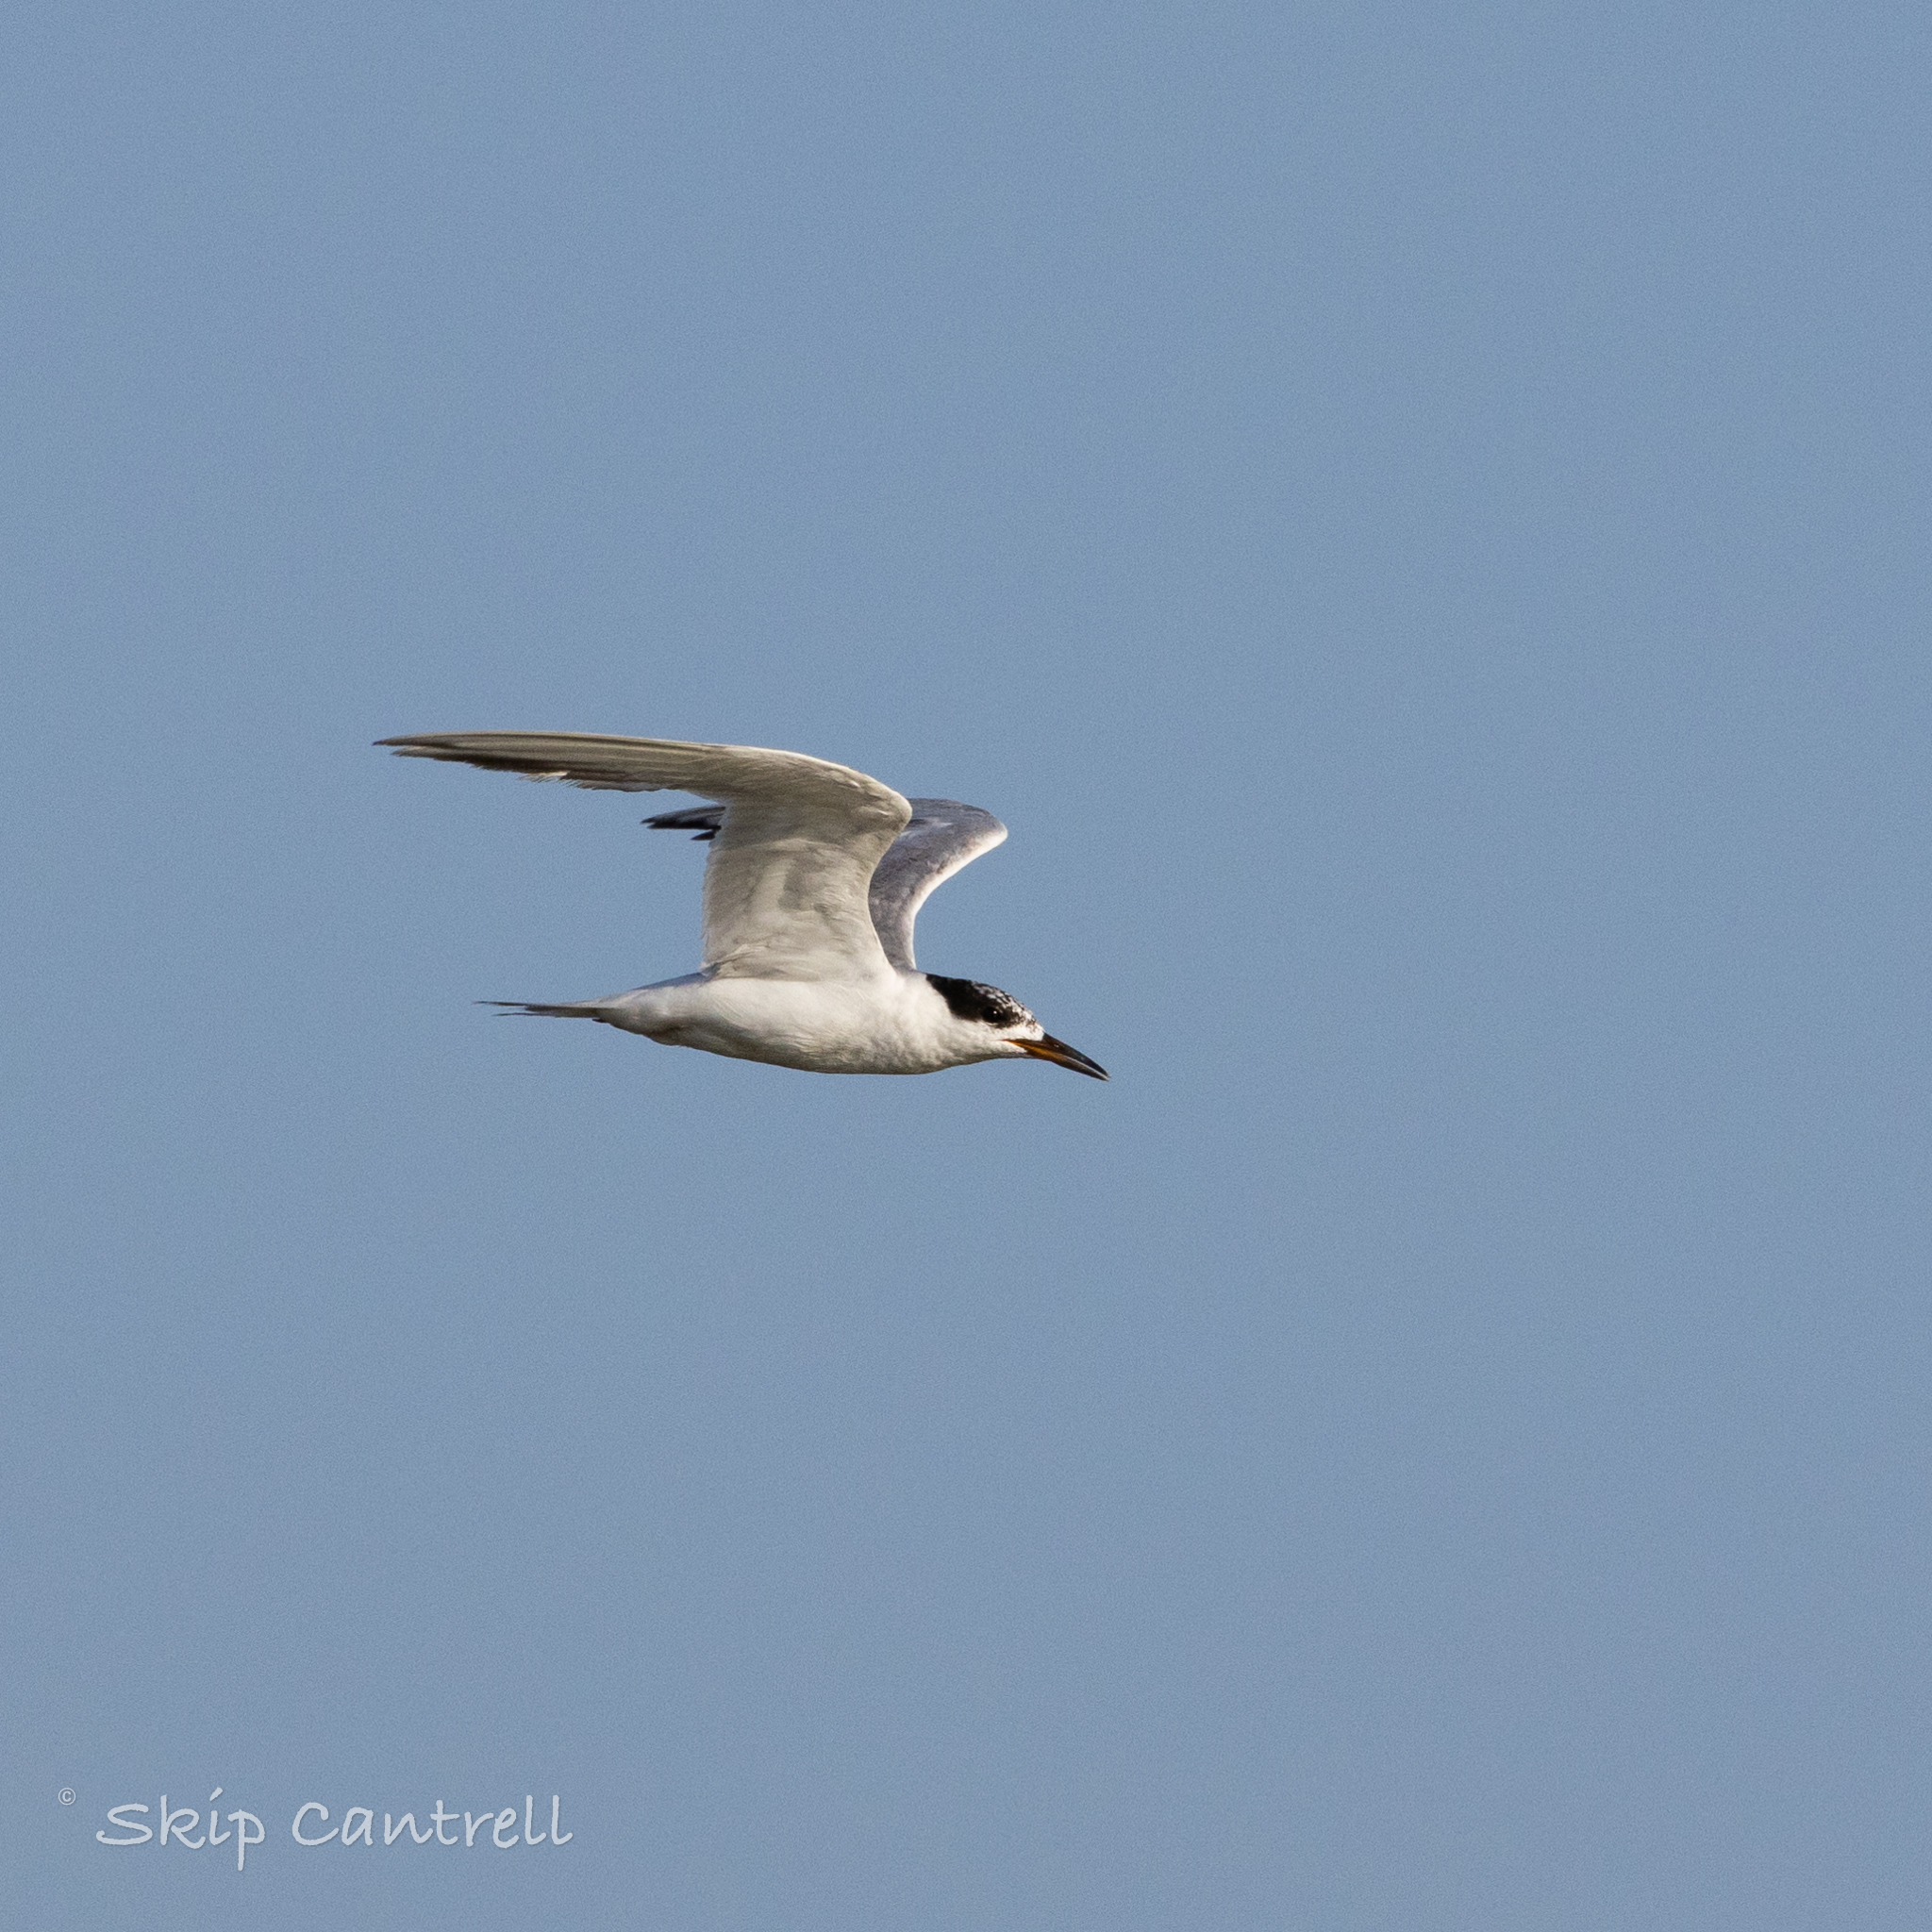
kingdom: Animalia
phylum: Chordata
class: Aves
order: Charadriiformes
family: Laridae
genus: Sterna
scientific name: Sterna forsteri
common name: Forster's tern
